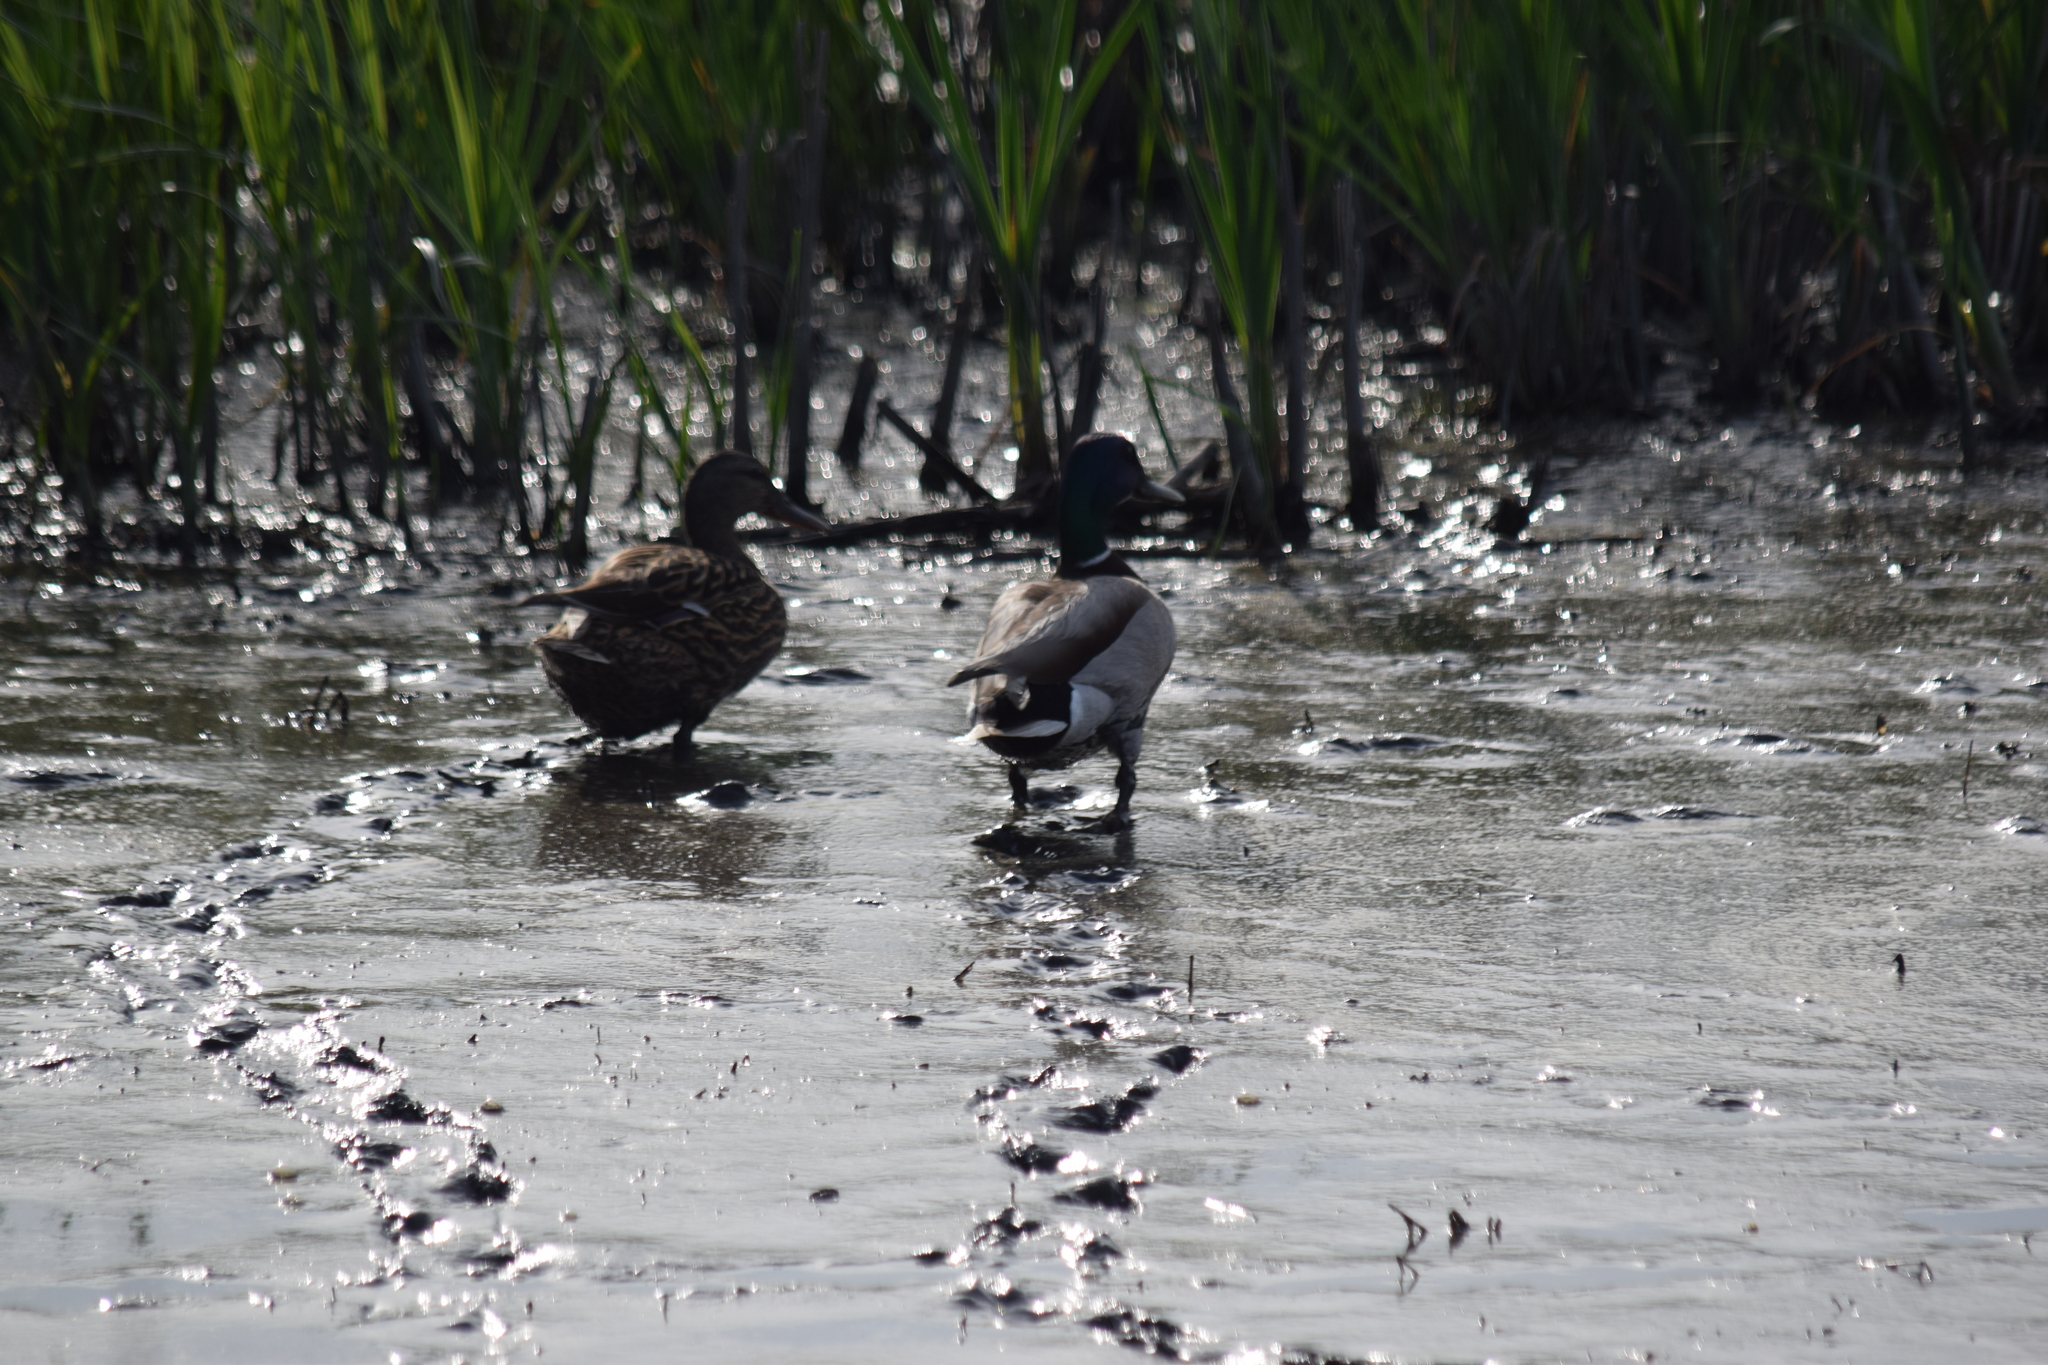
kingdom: Animalia
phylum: Chordata
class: Aves
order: Anseriformes
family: Anatidae
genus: Anas
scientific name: Anas platyrhynchos
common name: Mallard
